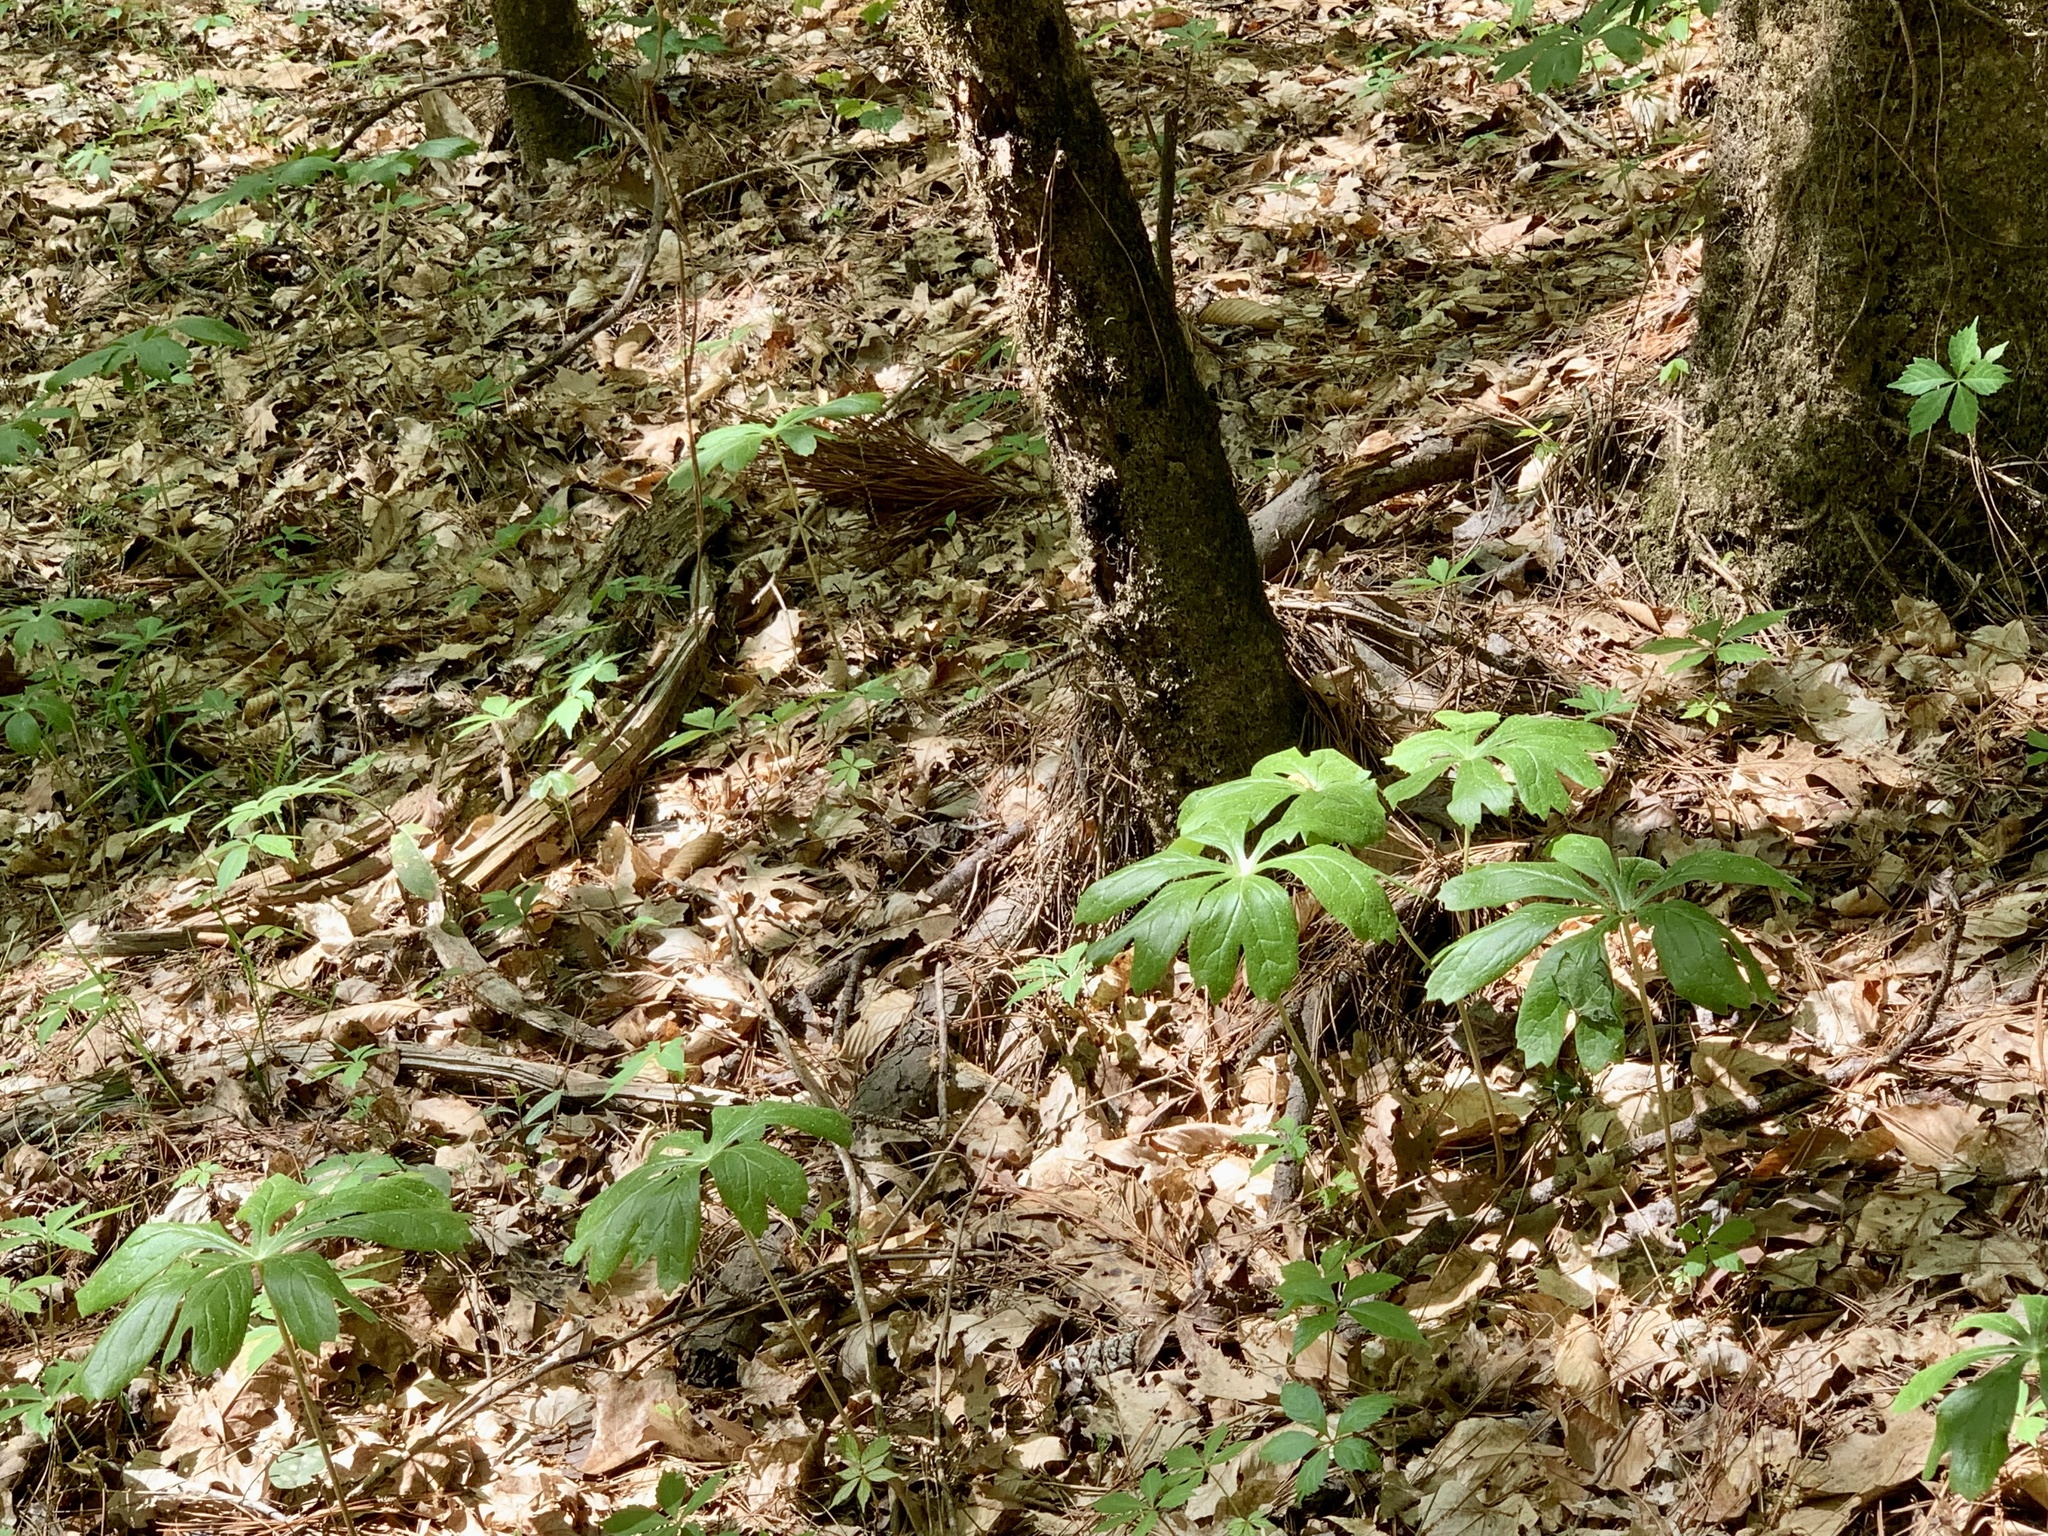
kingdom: Plantae
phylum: Tracheophyta
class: Magnoliopsida
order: Ranunculales
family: Berberidaceae
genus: Podophyllum
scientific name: Podophyllum peltatum
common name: Wild mandrake
